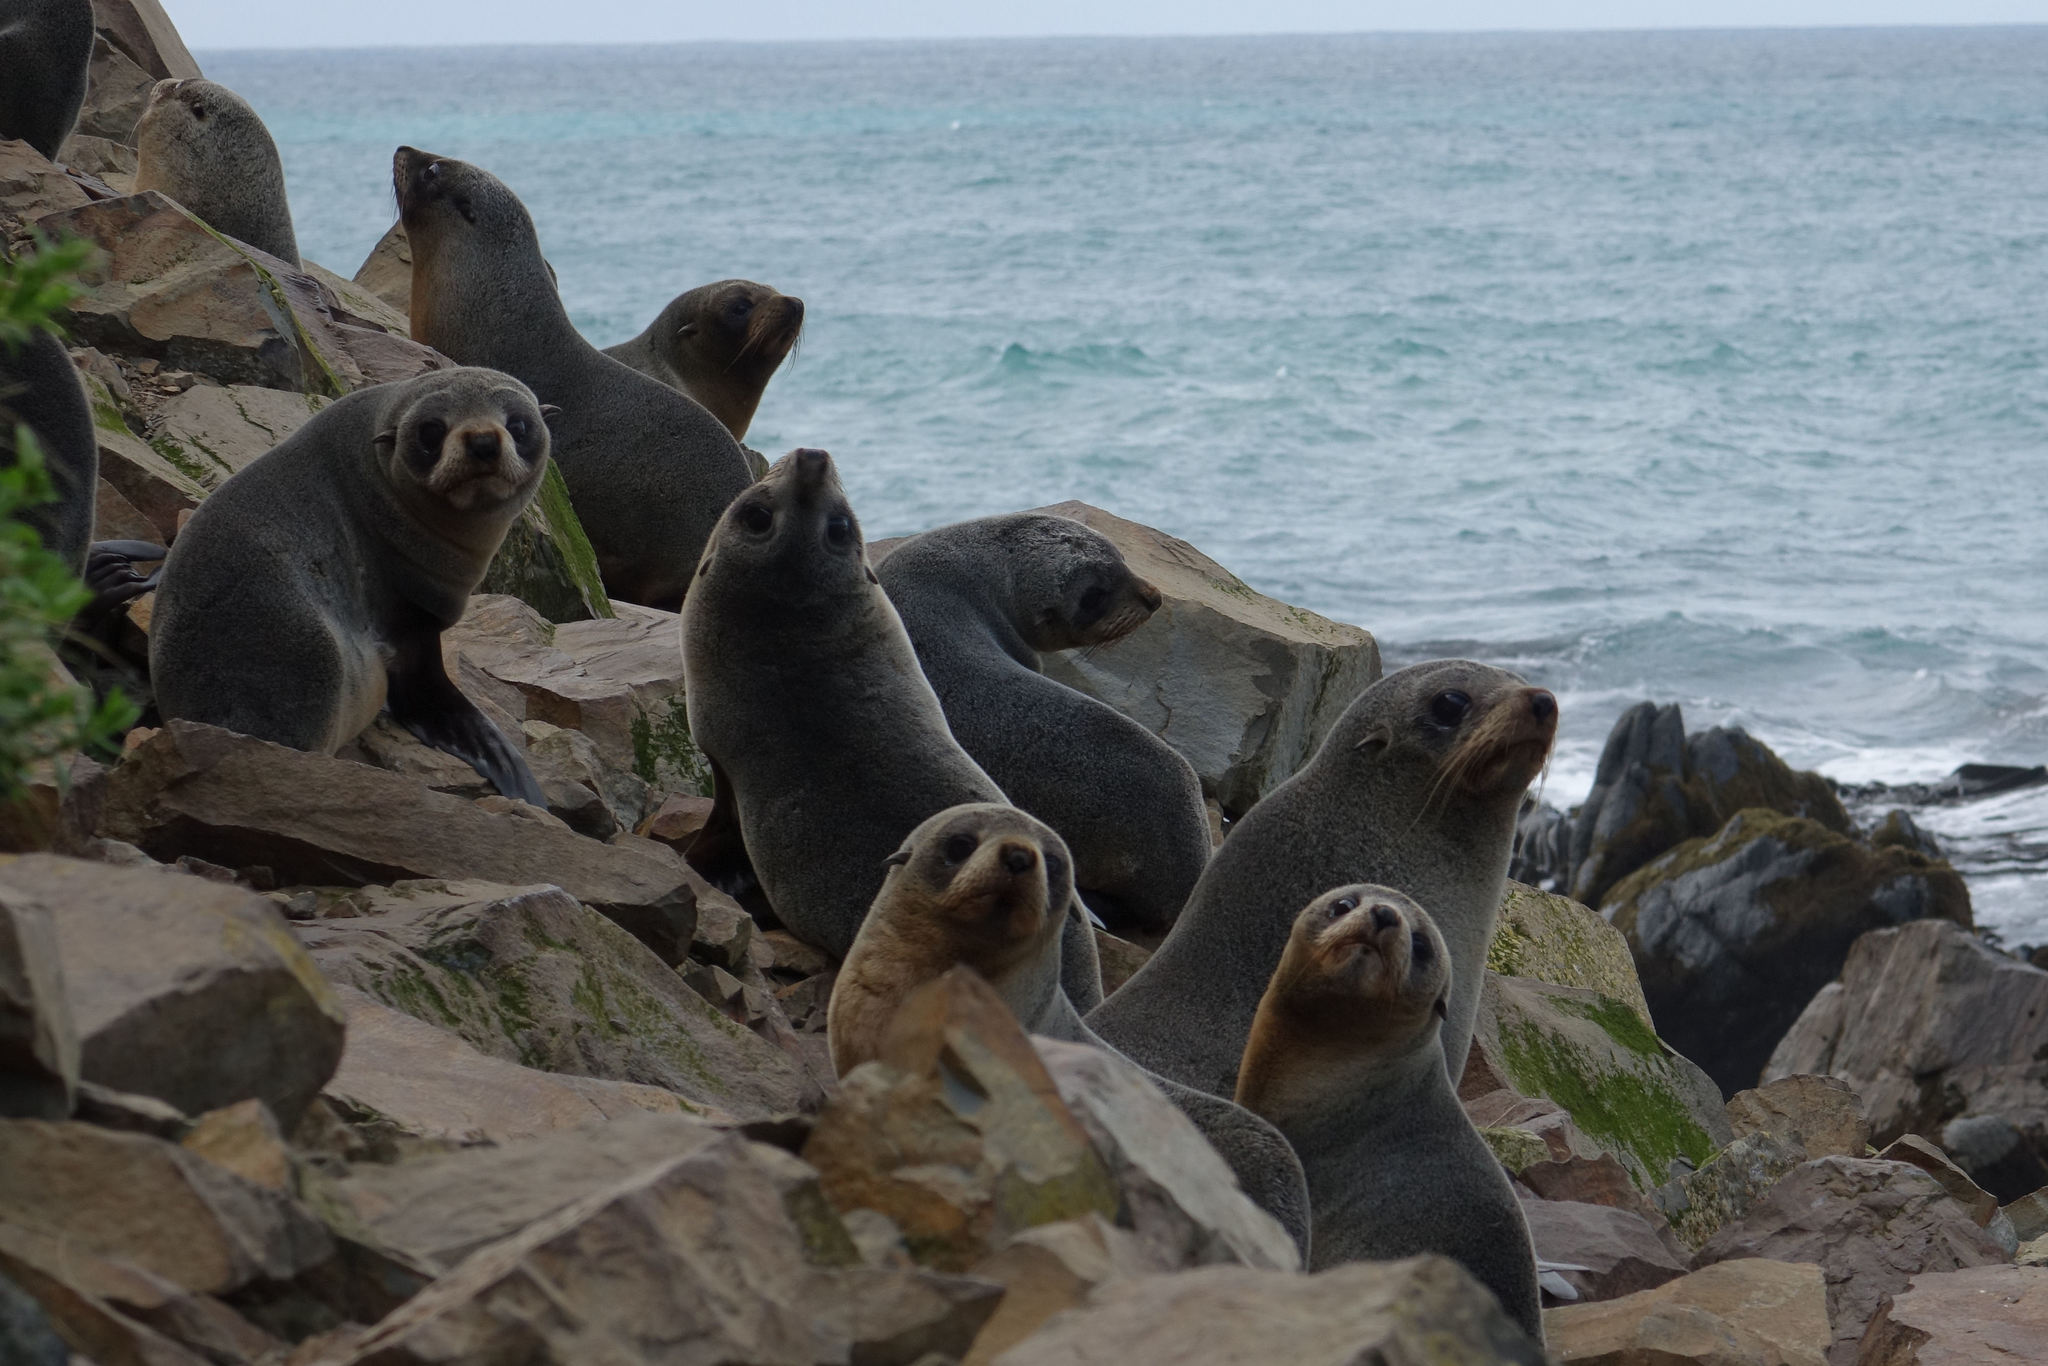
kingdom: Animalia
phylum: Chordata
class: Mammalia
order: Carnivora
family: Otariidae
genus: Arctocephalus
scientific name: Arctocephalus forsteri
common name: New zealand fur seal
